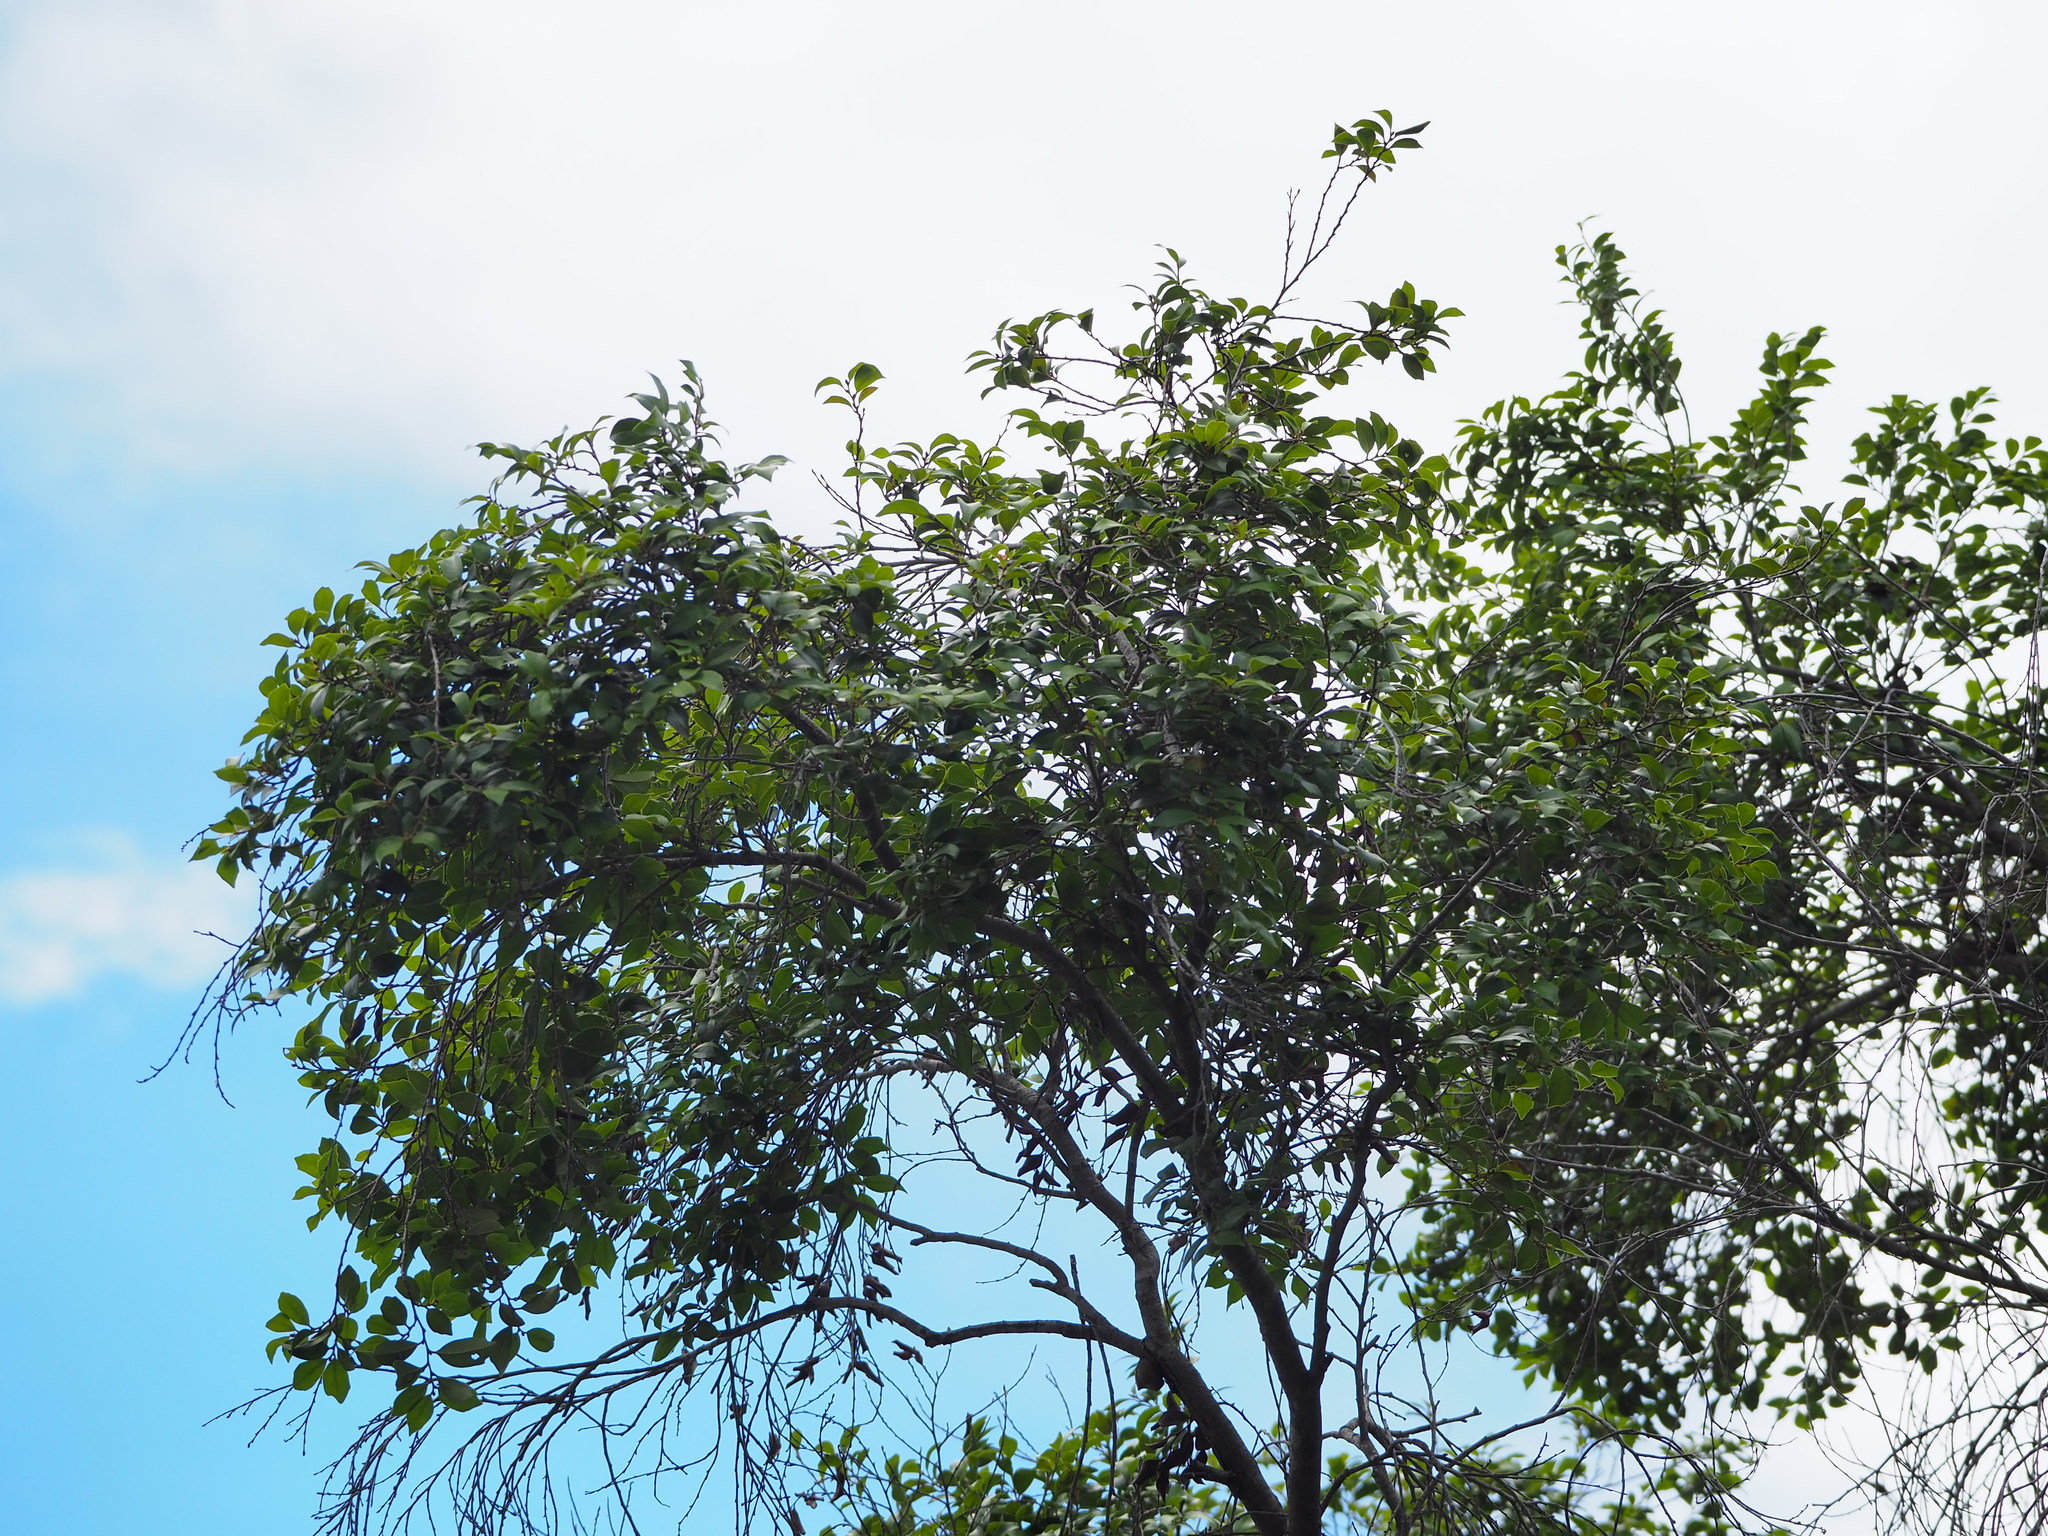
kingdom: Plantae
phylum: Tracheophyta
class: Magnoliopsida
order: Saxifragales
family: Hamamelidaceae
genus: Distylium
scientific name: Distylium gracile
